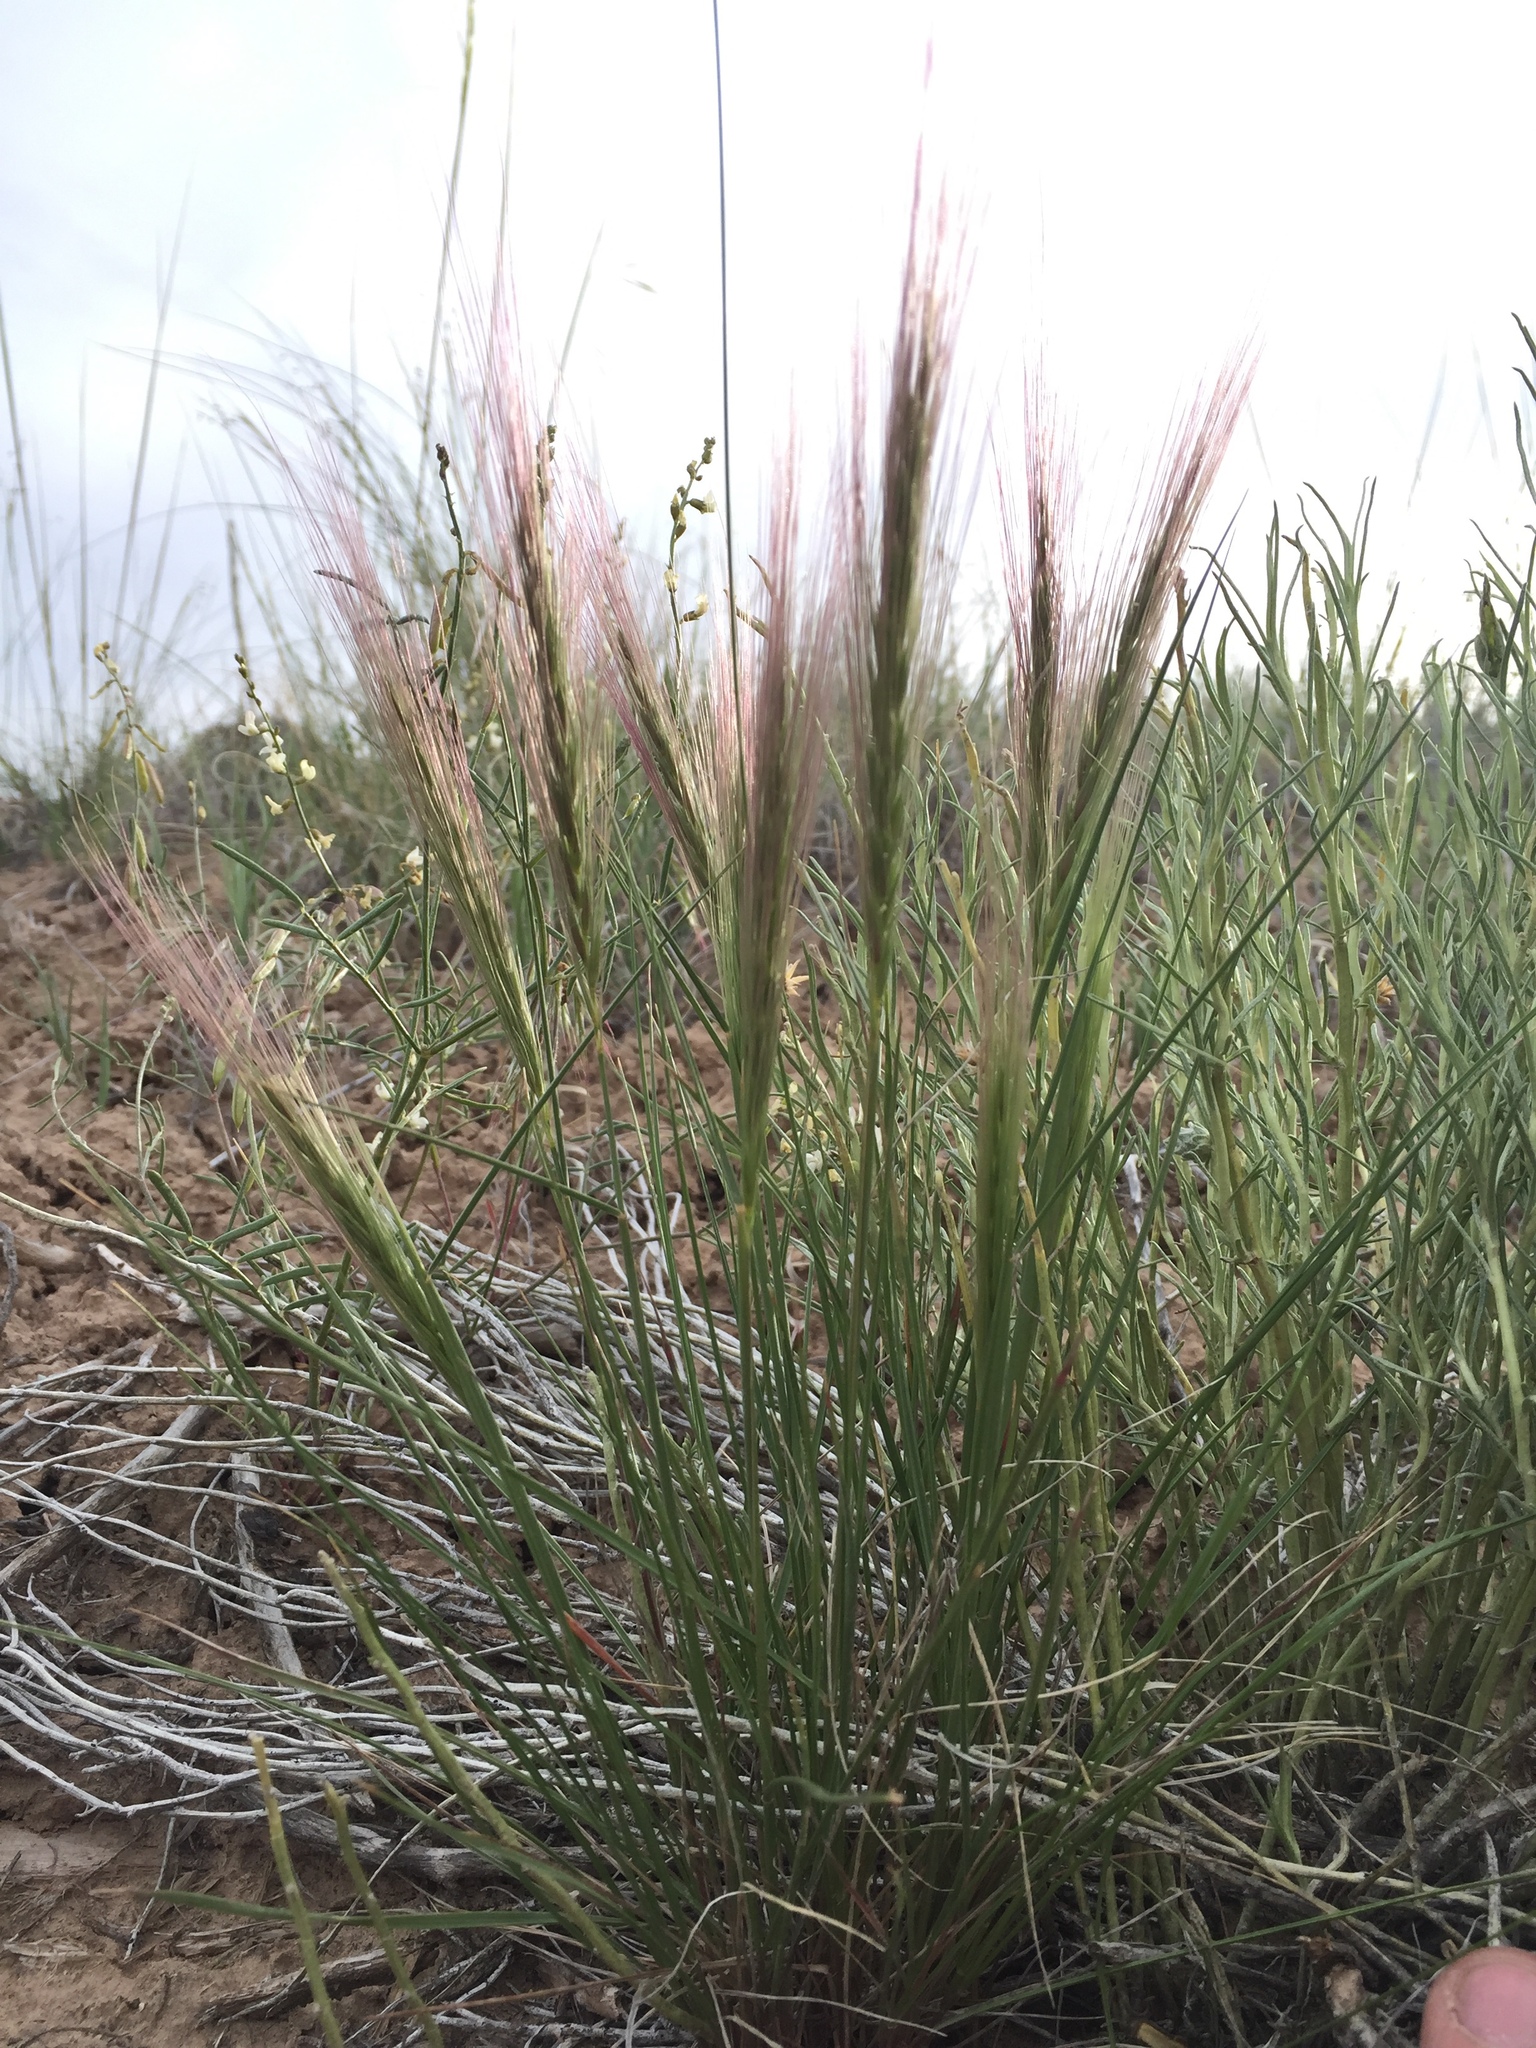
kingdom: Plantae
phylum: Tracheophyta
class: Liliopsida
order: Poales
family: Poaceae
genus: Elymus
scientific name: Elymus longifolius
